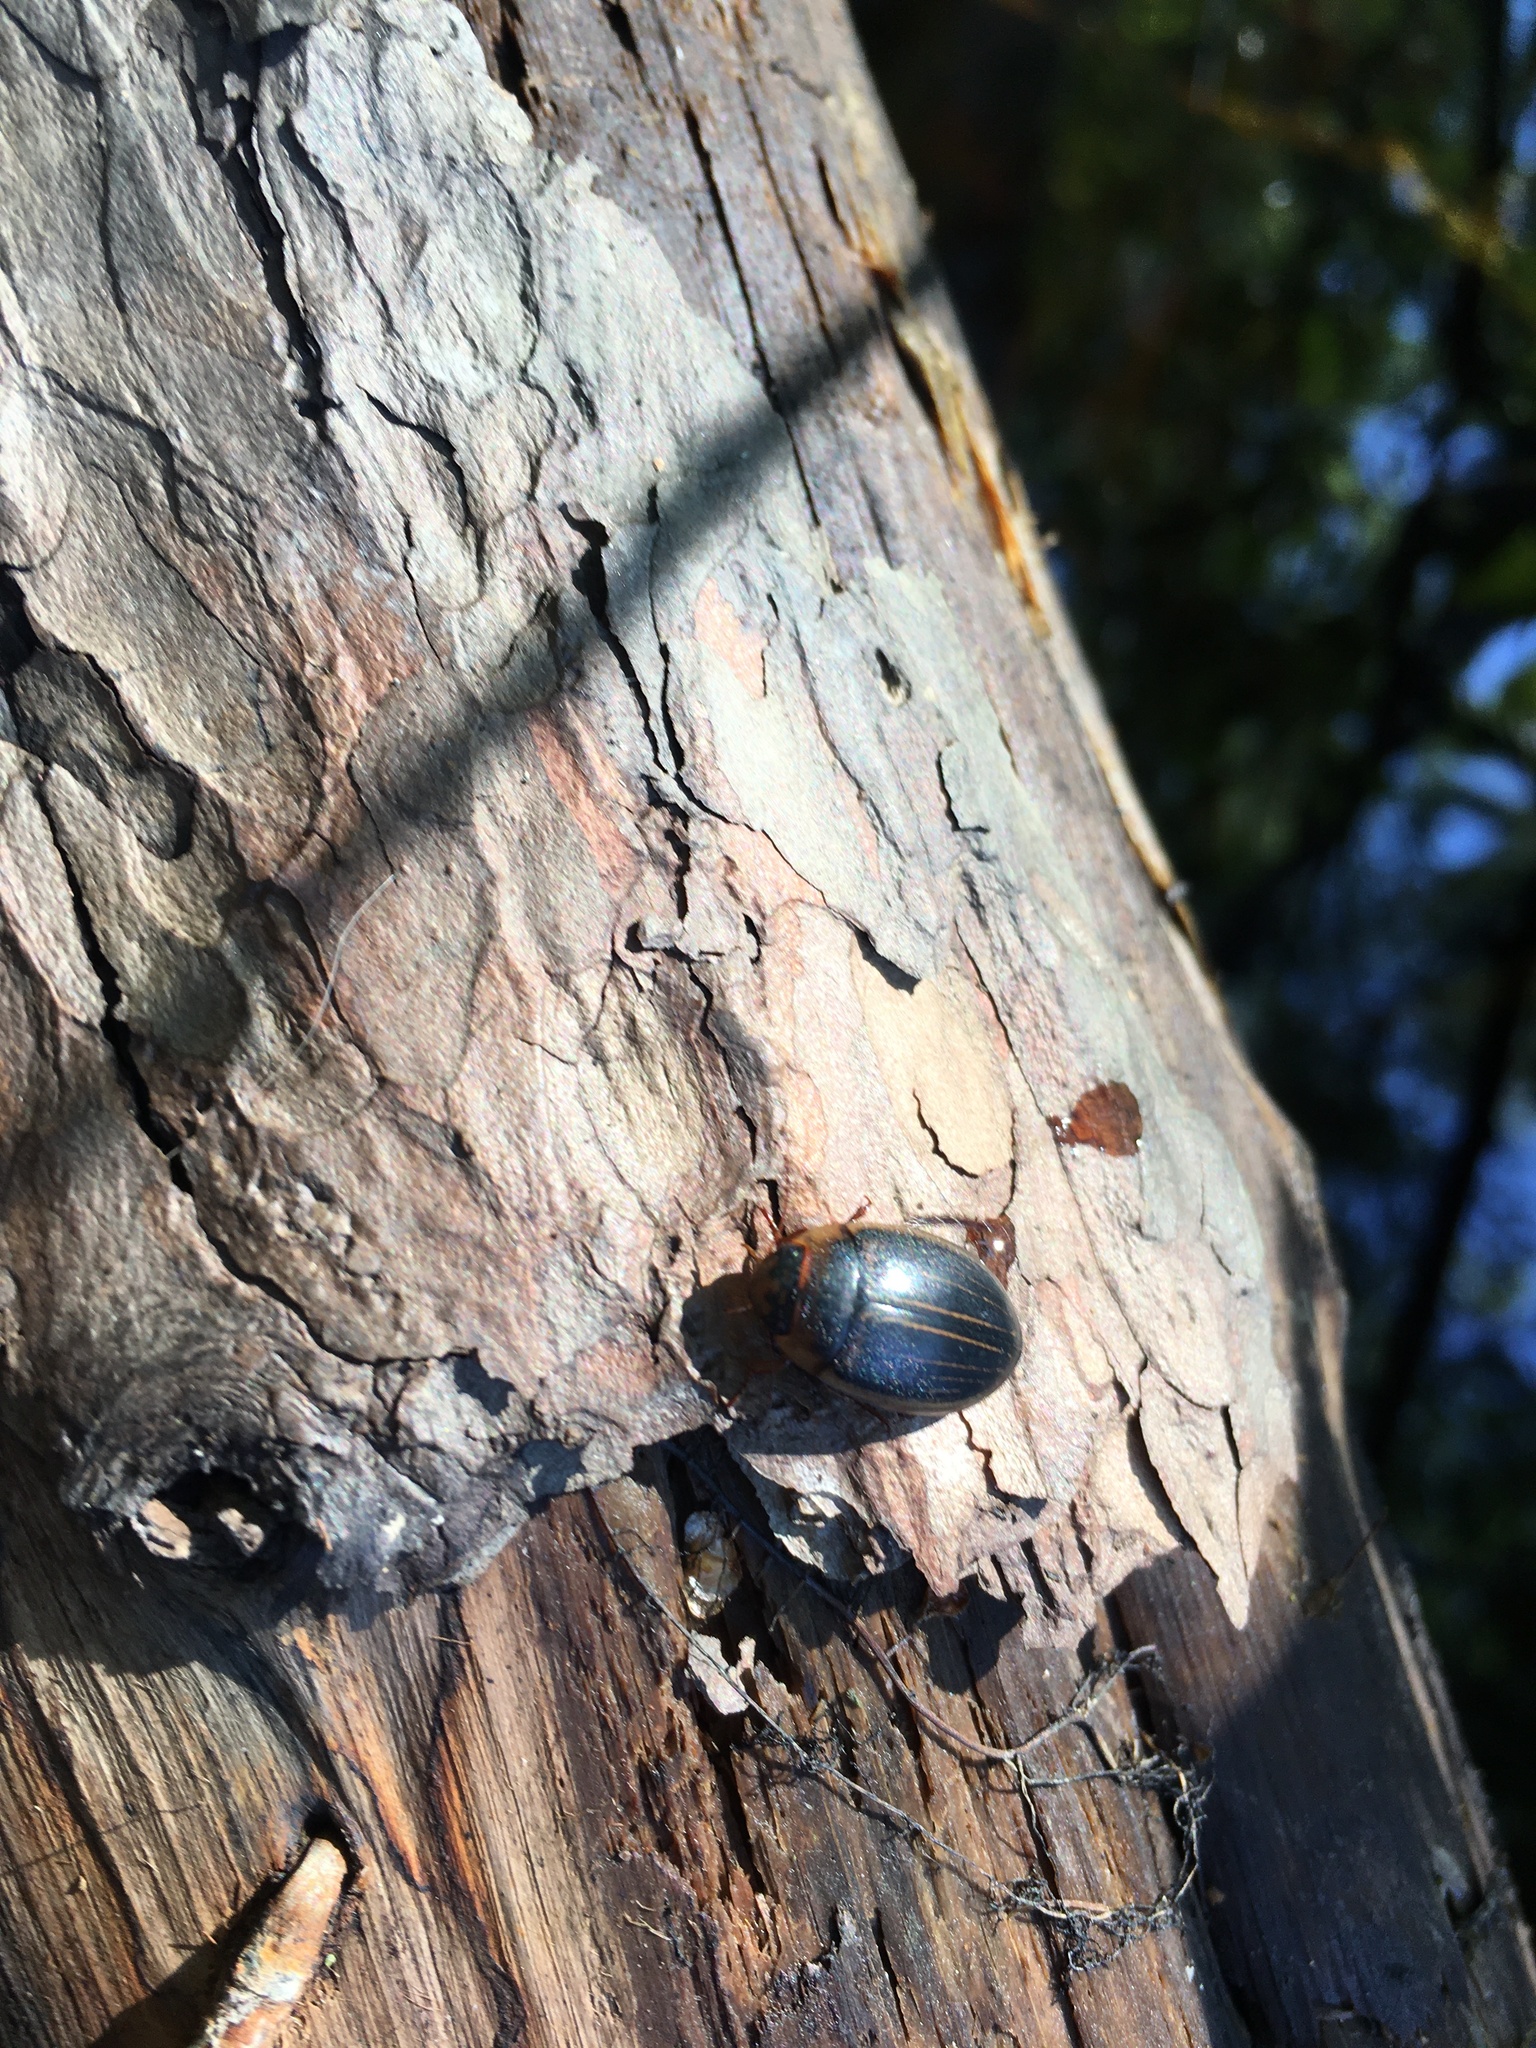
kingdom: Animalia
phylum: Arthropoda
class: Insecta
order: Coleoptera
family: Dytiscidae
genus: Hydaticus
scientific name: Hydaticus aruspex
